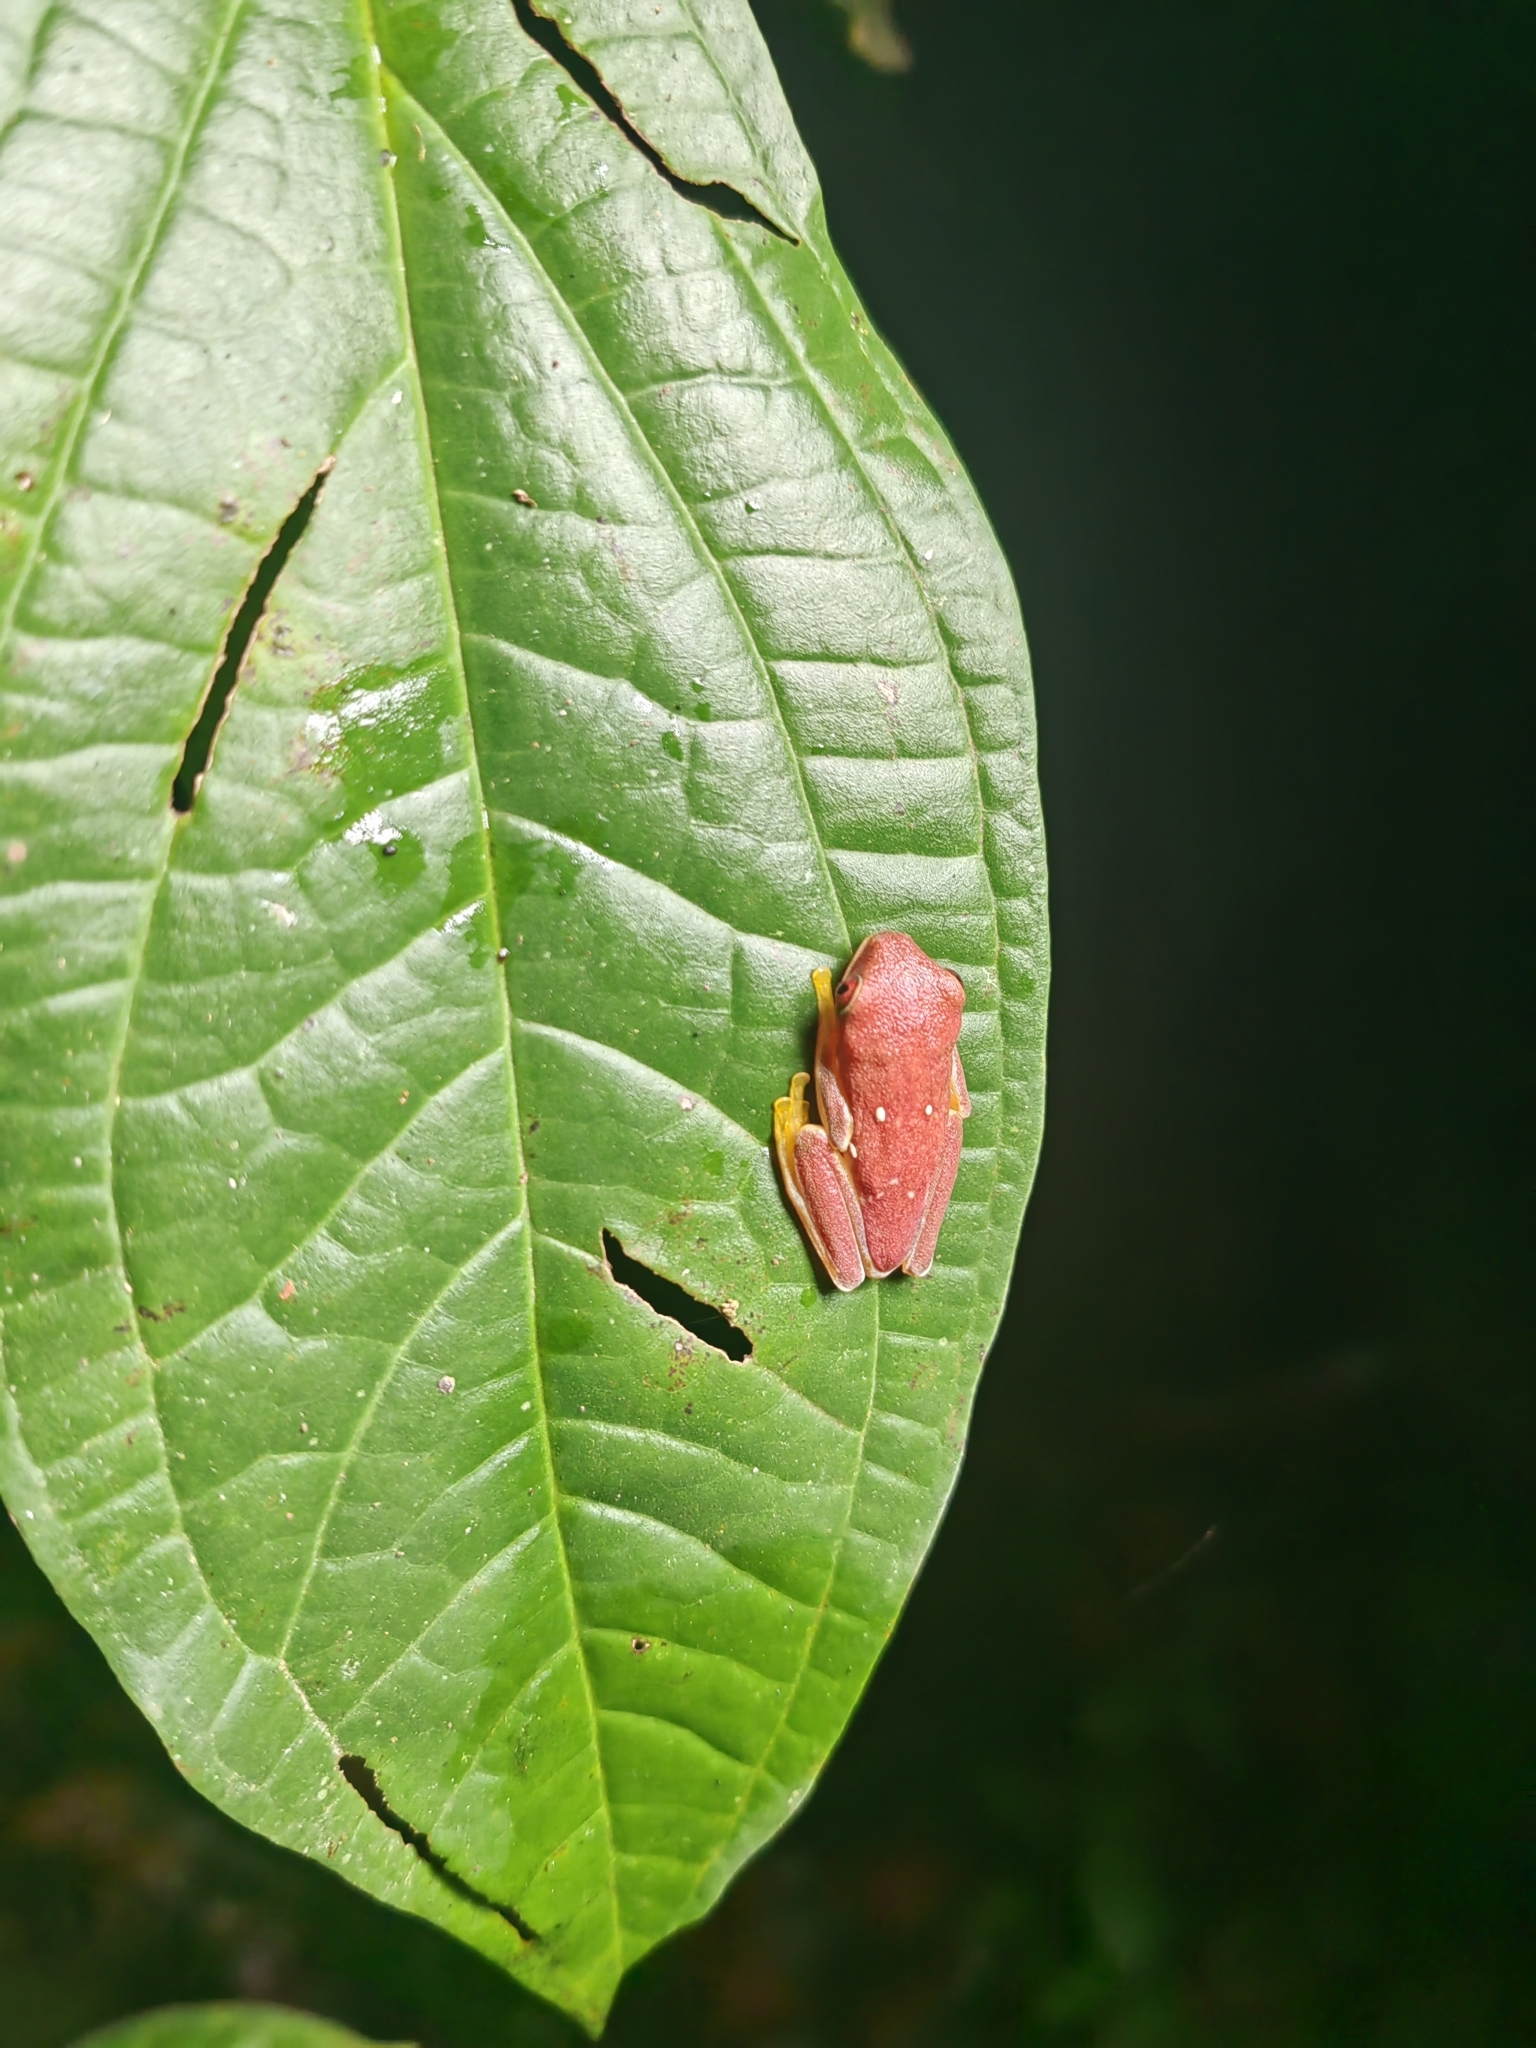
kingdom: Animalia
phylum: Chordata
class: Amphibia
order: Anura
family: Phyllomedusidae
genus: Agalychnis
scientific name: Agalychnis spurrelli
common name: Gliding leaf frog
